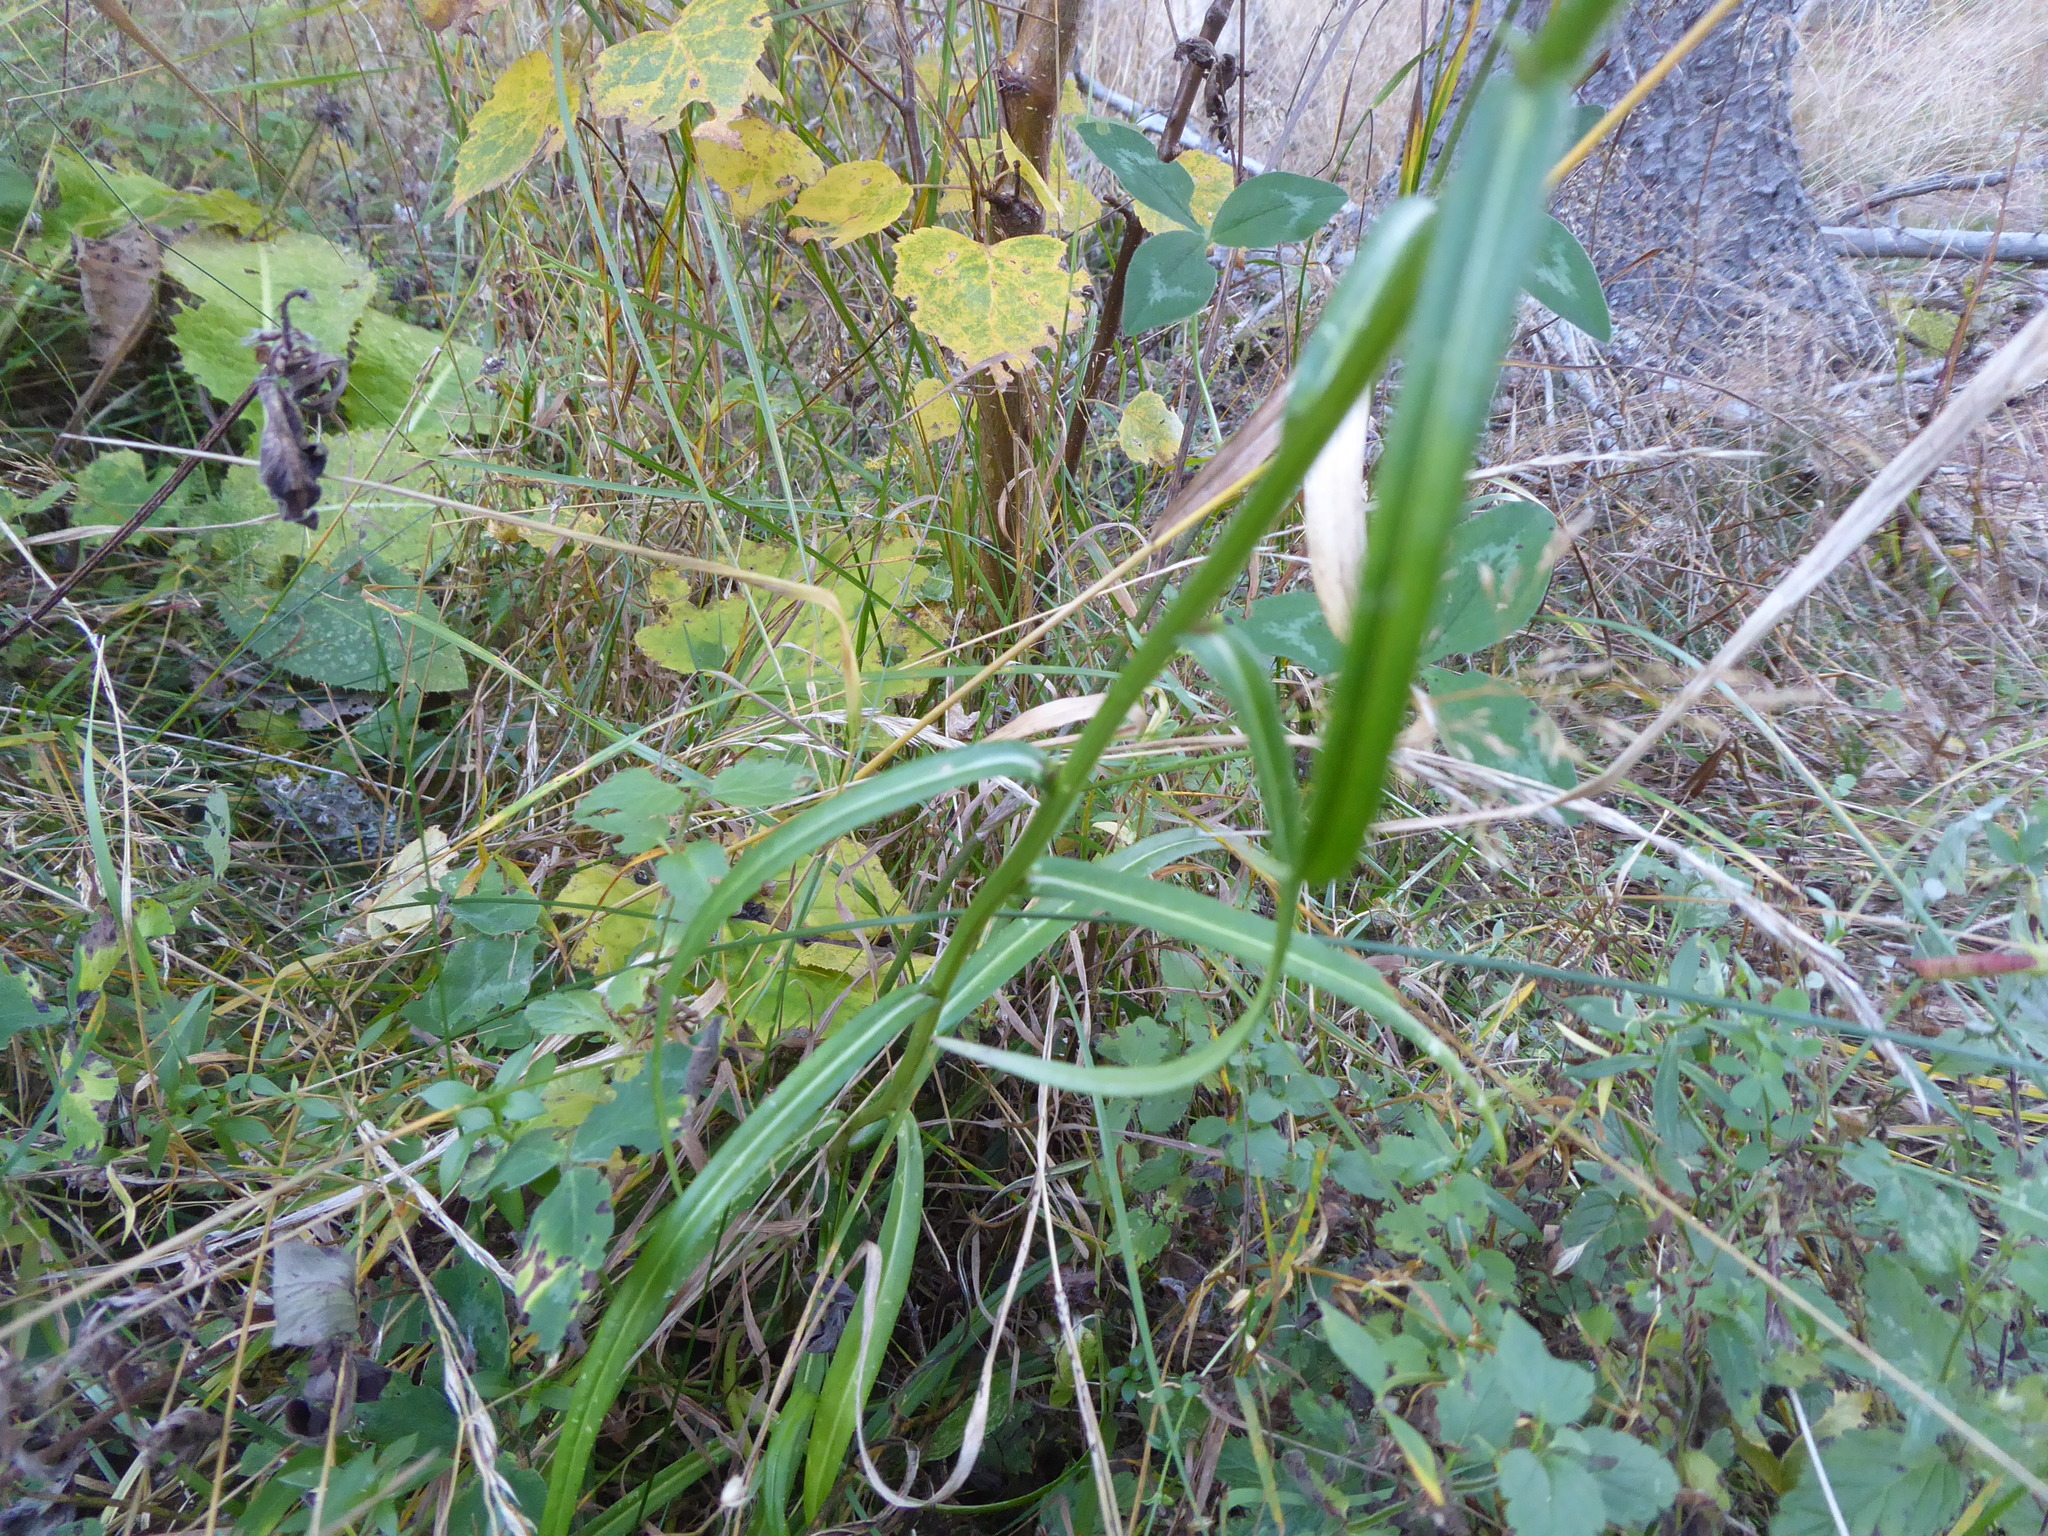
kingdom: Plantae
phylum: Tracheophyta
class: Magnoliopsida
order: Asterales
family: Campanulaceae
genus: Campanula
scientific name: Campanula persicifolia
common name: Peach-leaved bellflower
